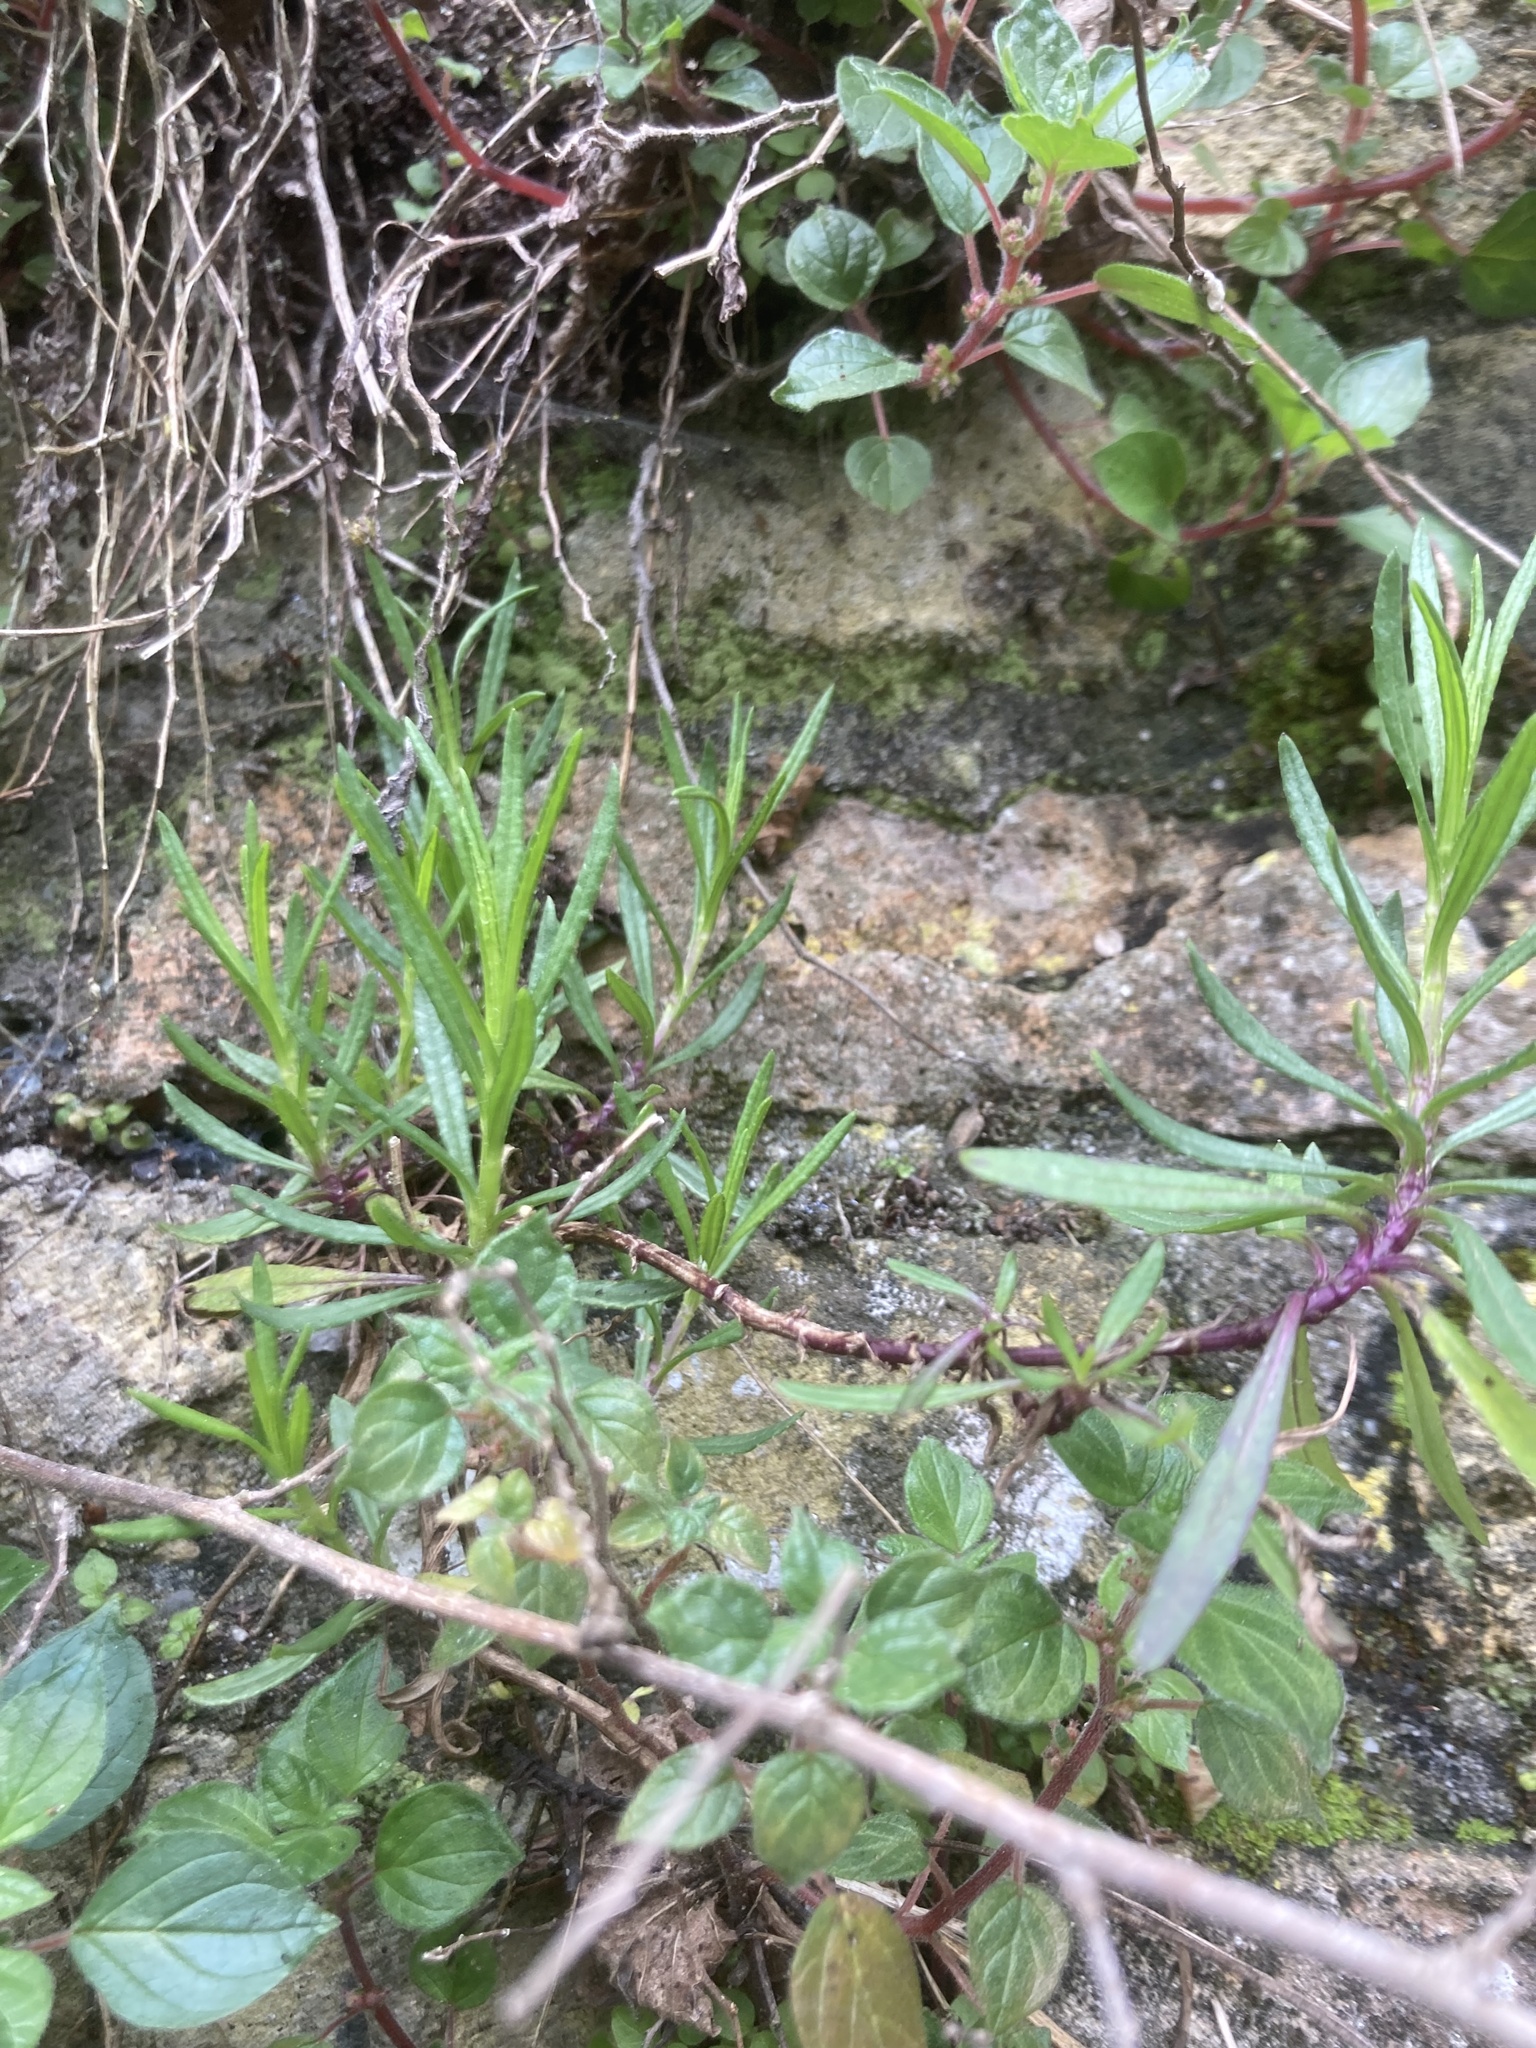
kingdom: Plantae
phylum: Tracheophyta
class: Magnoliopsida
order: Asterales
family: Asteraceae
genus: Senecio
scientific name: Senecio inaequidens
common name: Narrow-leaved ragwort
